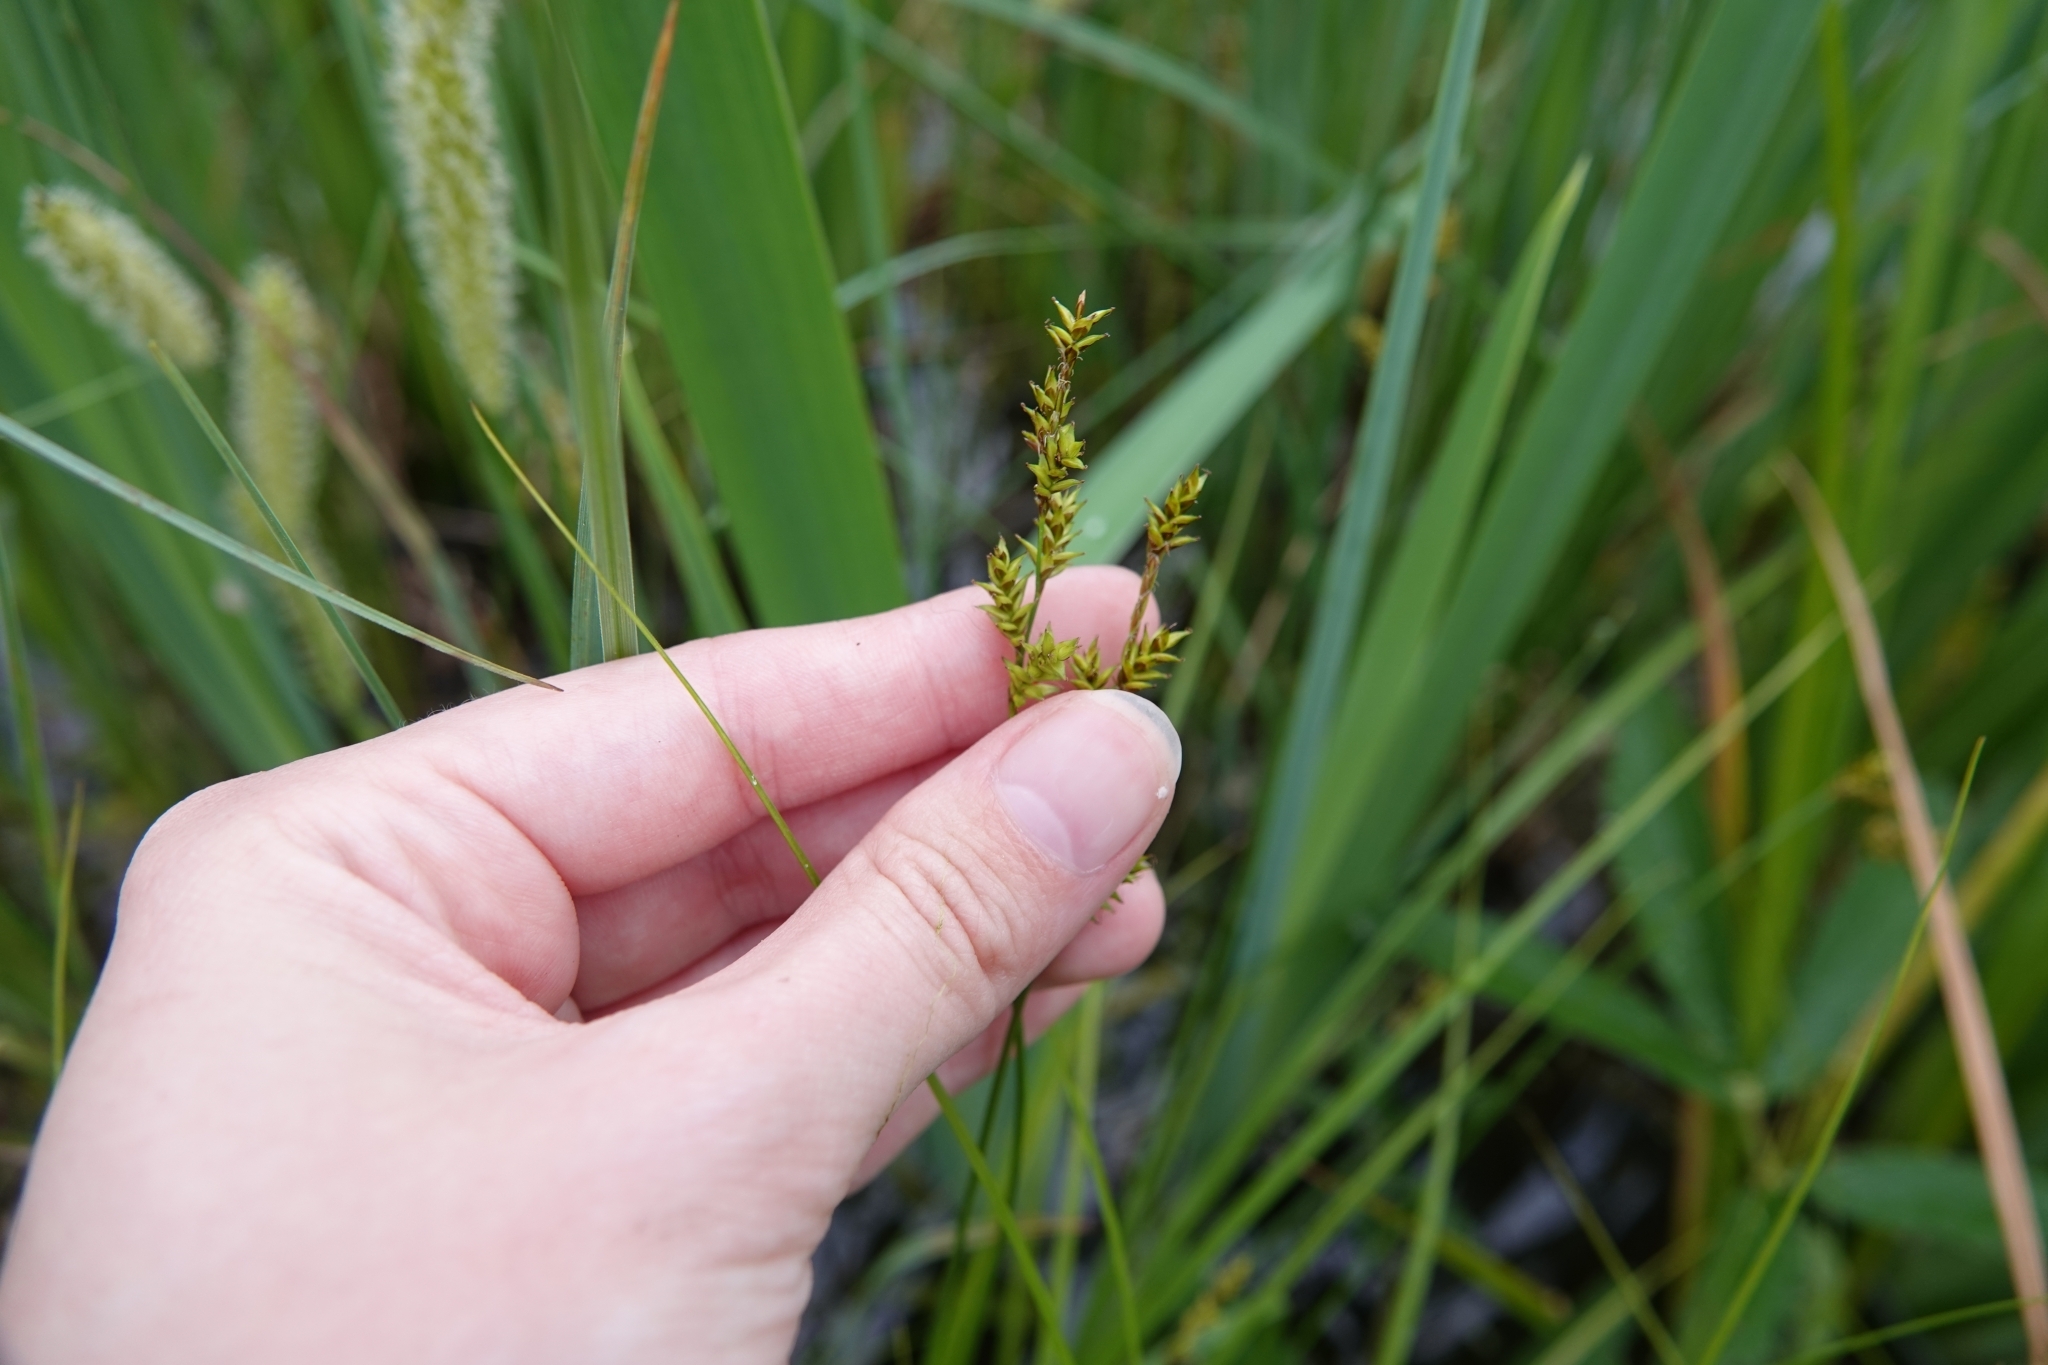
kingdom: Plantae
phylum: Tracheophyta
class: Liliopsida
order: Poales
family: Cyperaceae
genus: Carex
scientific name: Carex elongata
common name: Elongated sedge
